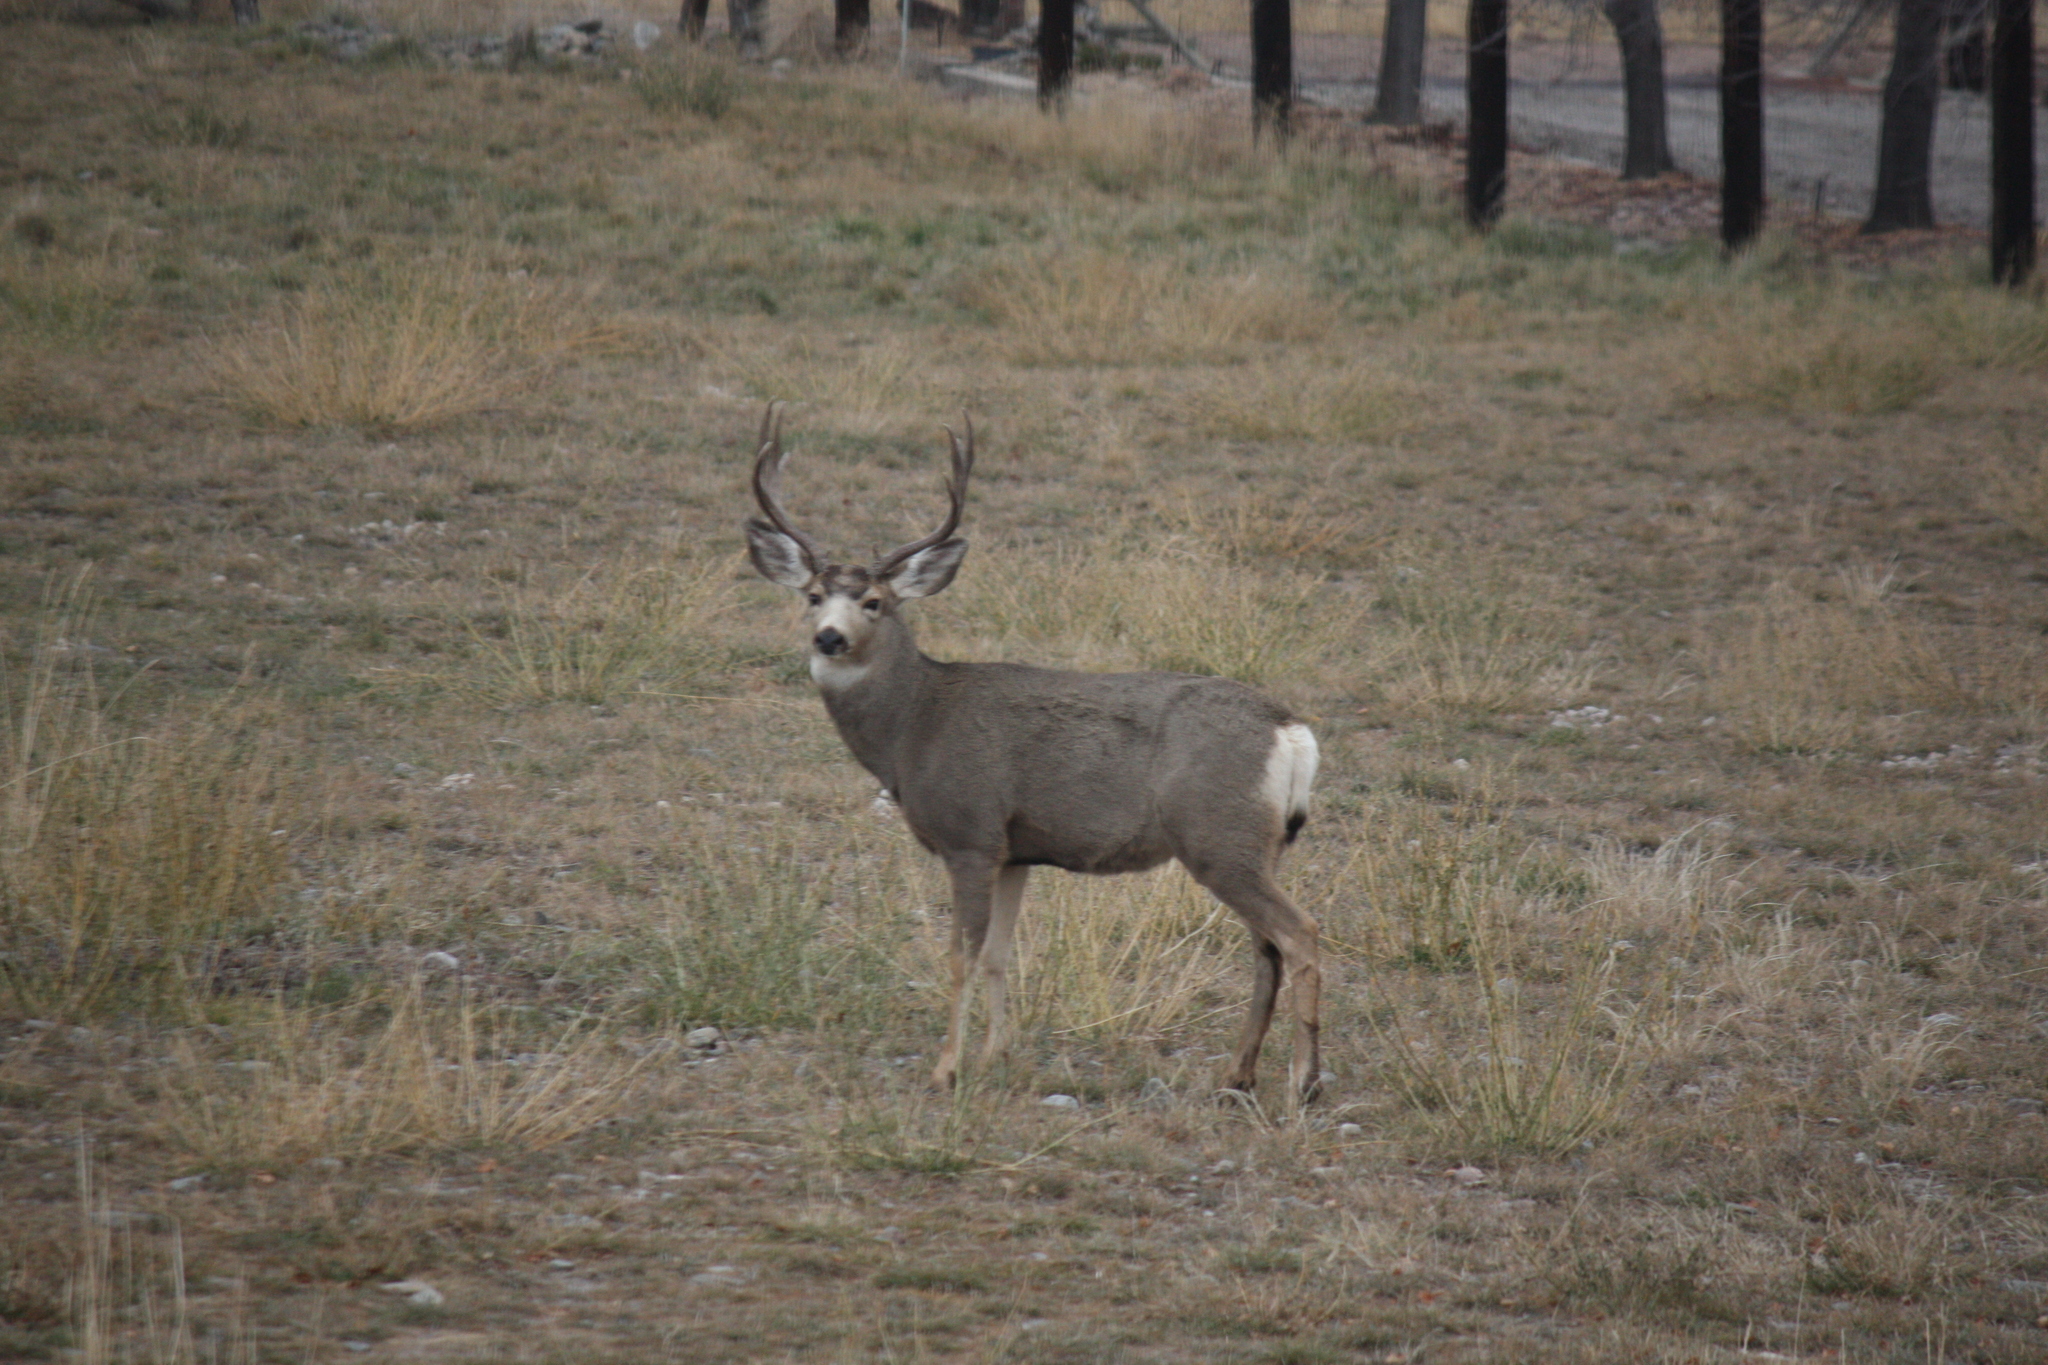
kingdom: Animalia
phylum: Chordata
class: Mammalia
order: Artiodactyla
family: Cervidae
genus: Odocoileus
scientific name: Odocoileus hemionus
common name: Mule deer
